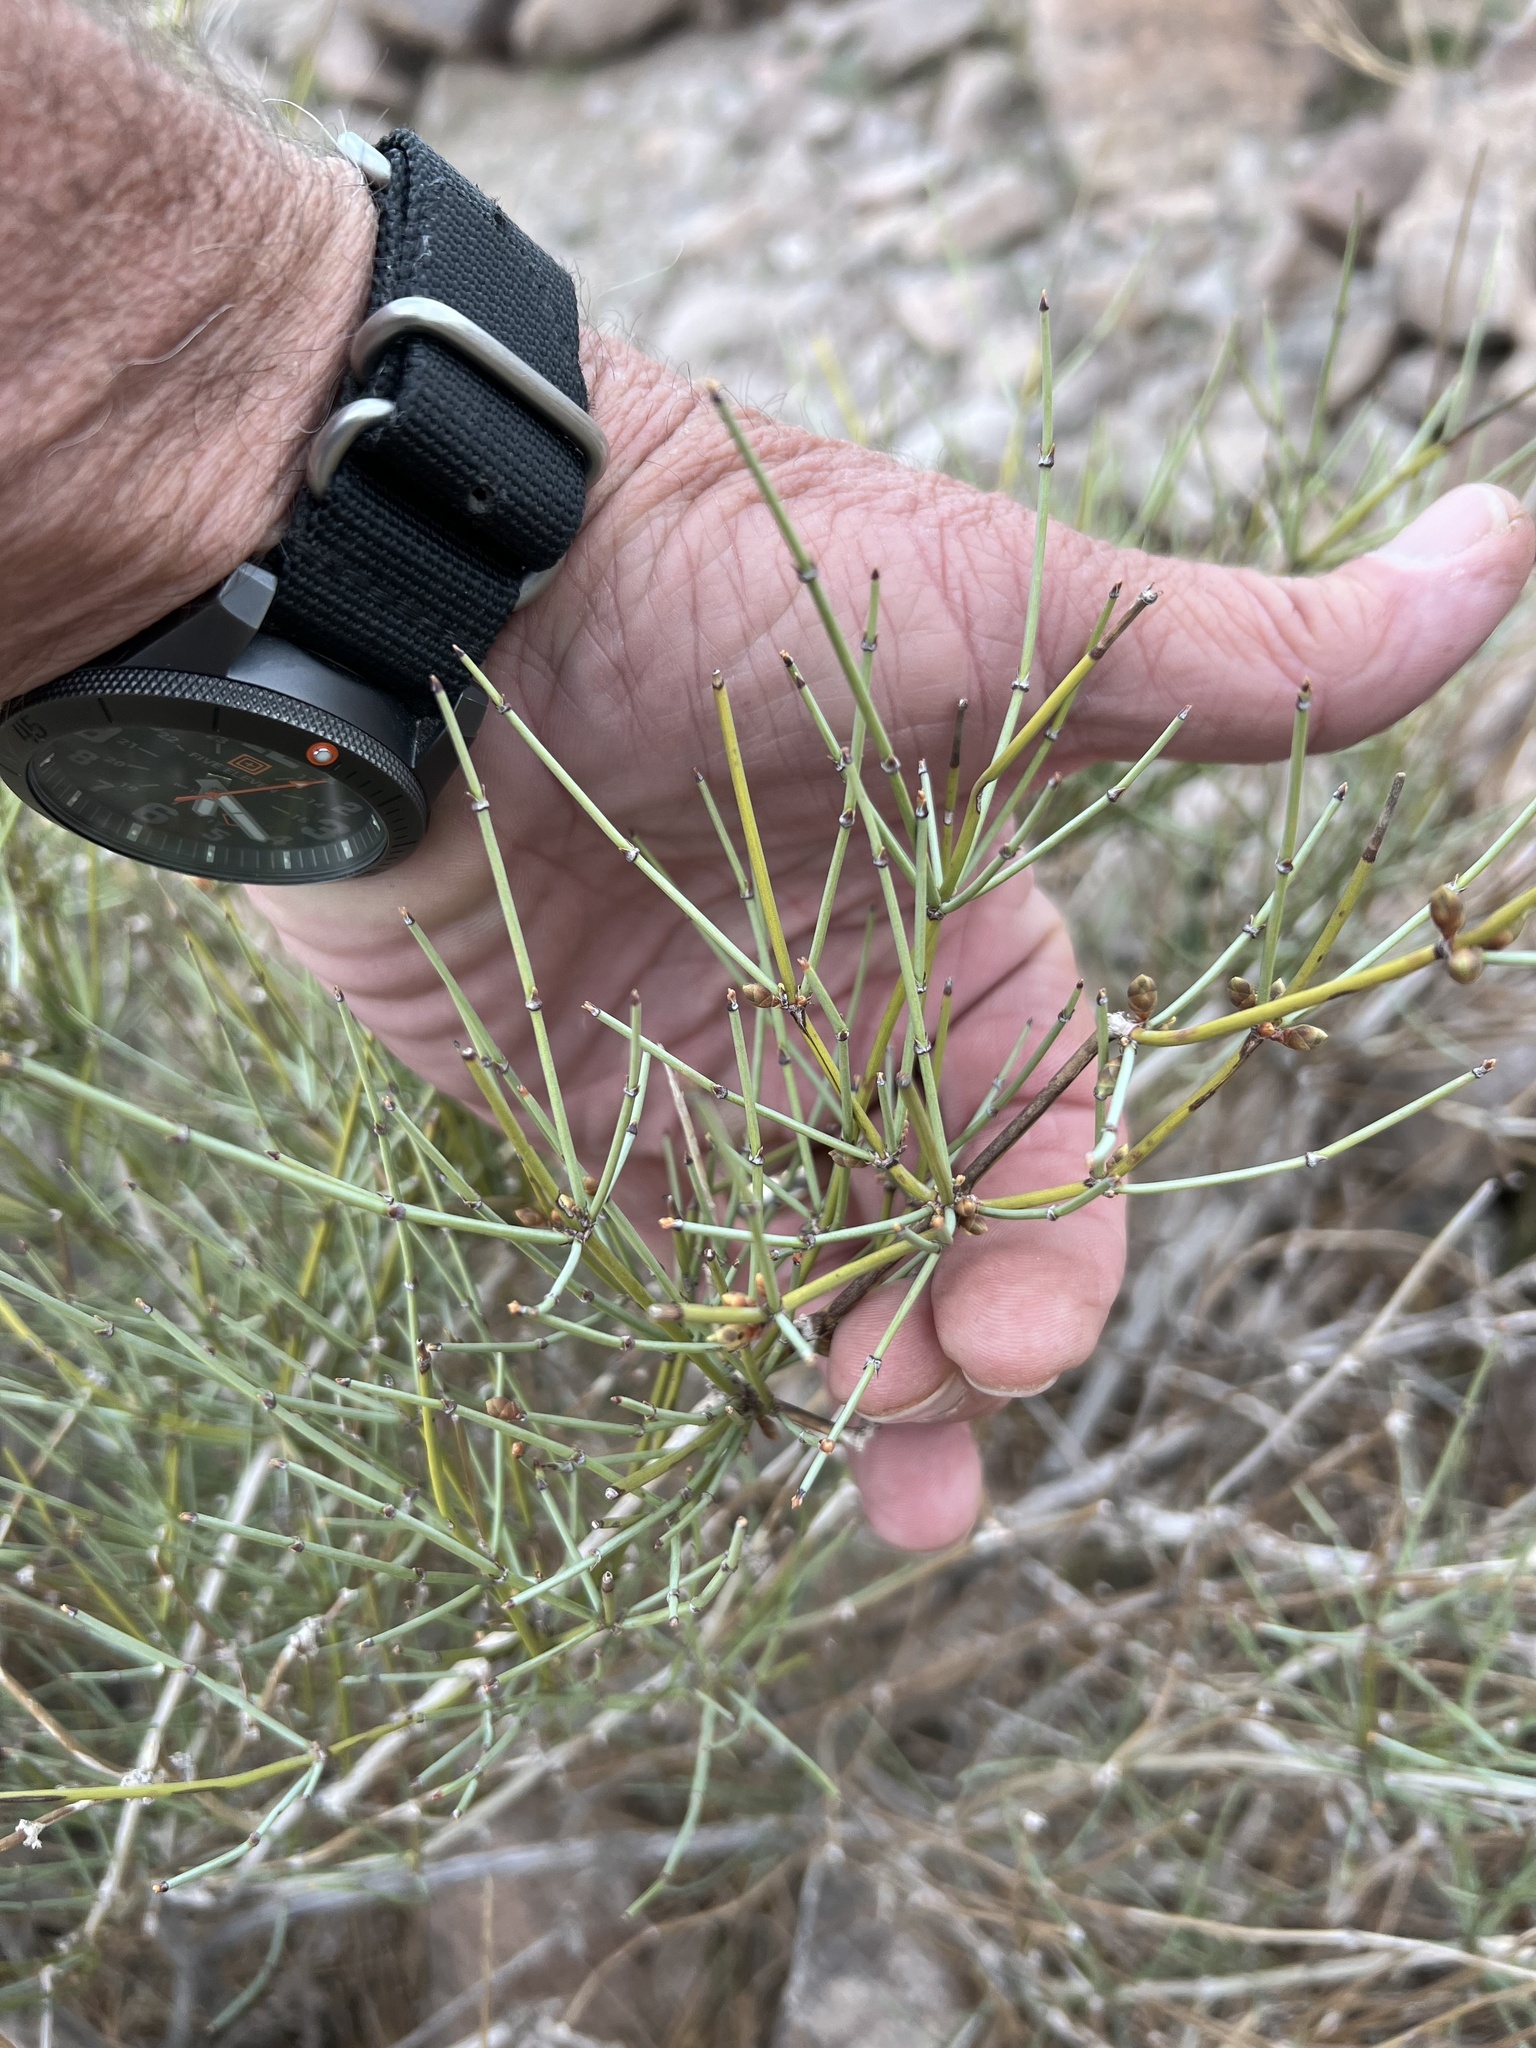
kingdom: Plantae
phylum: Tracheophyta
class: Gnetopsida
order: Ephedrales
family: Ephedraceae
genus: Ephedra
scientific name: Ephedra nevadensis
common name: Gray ephedra
